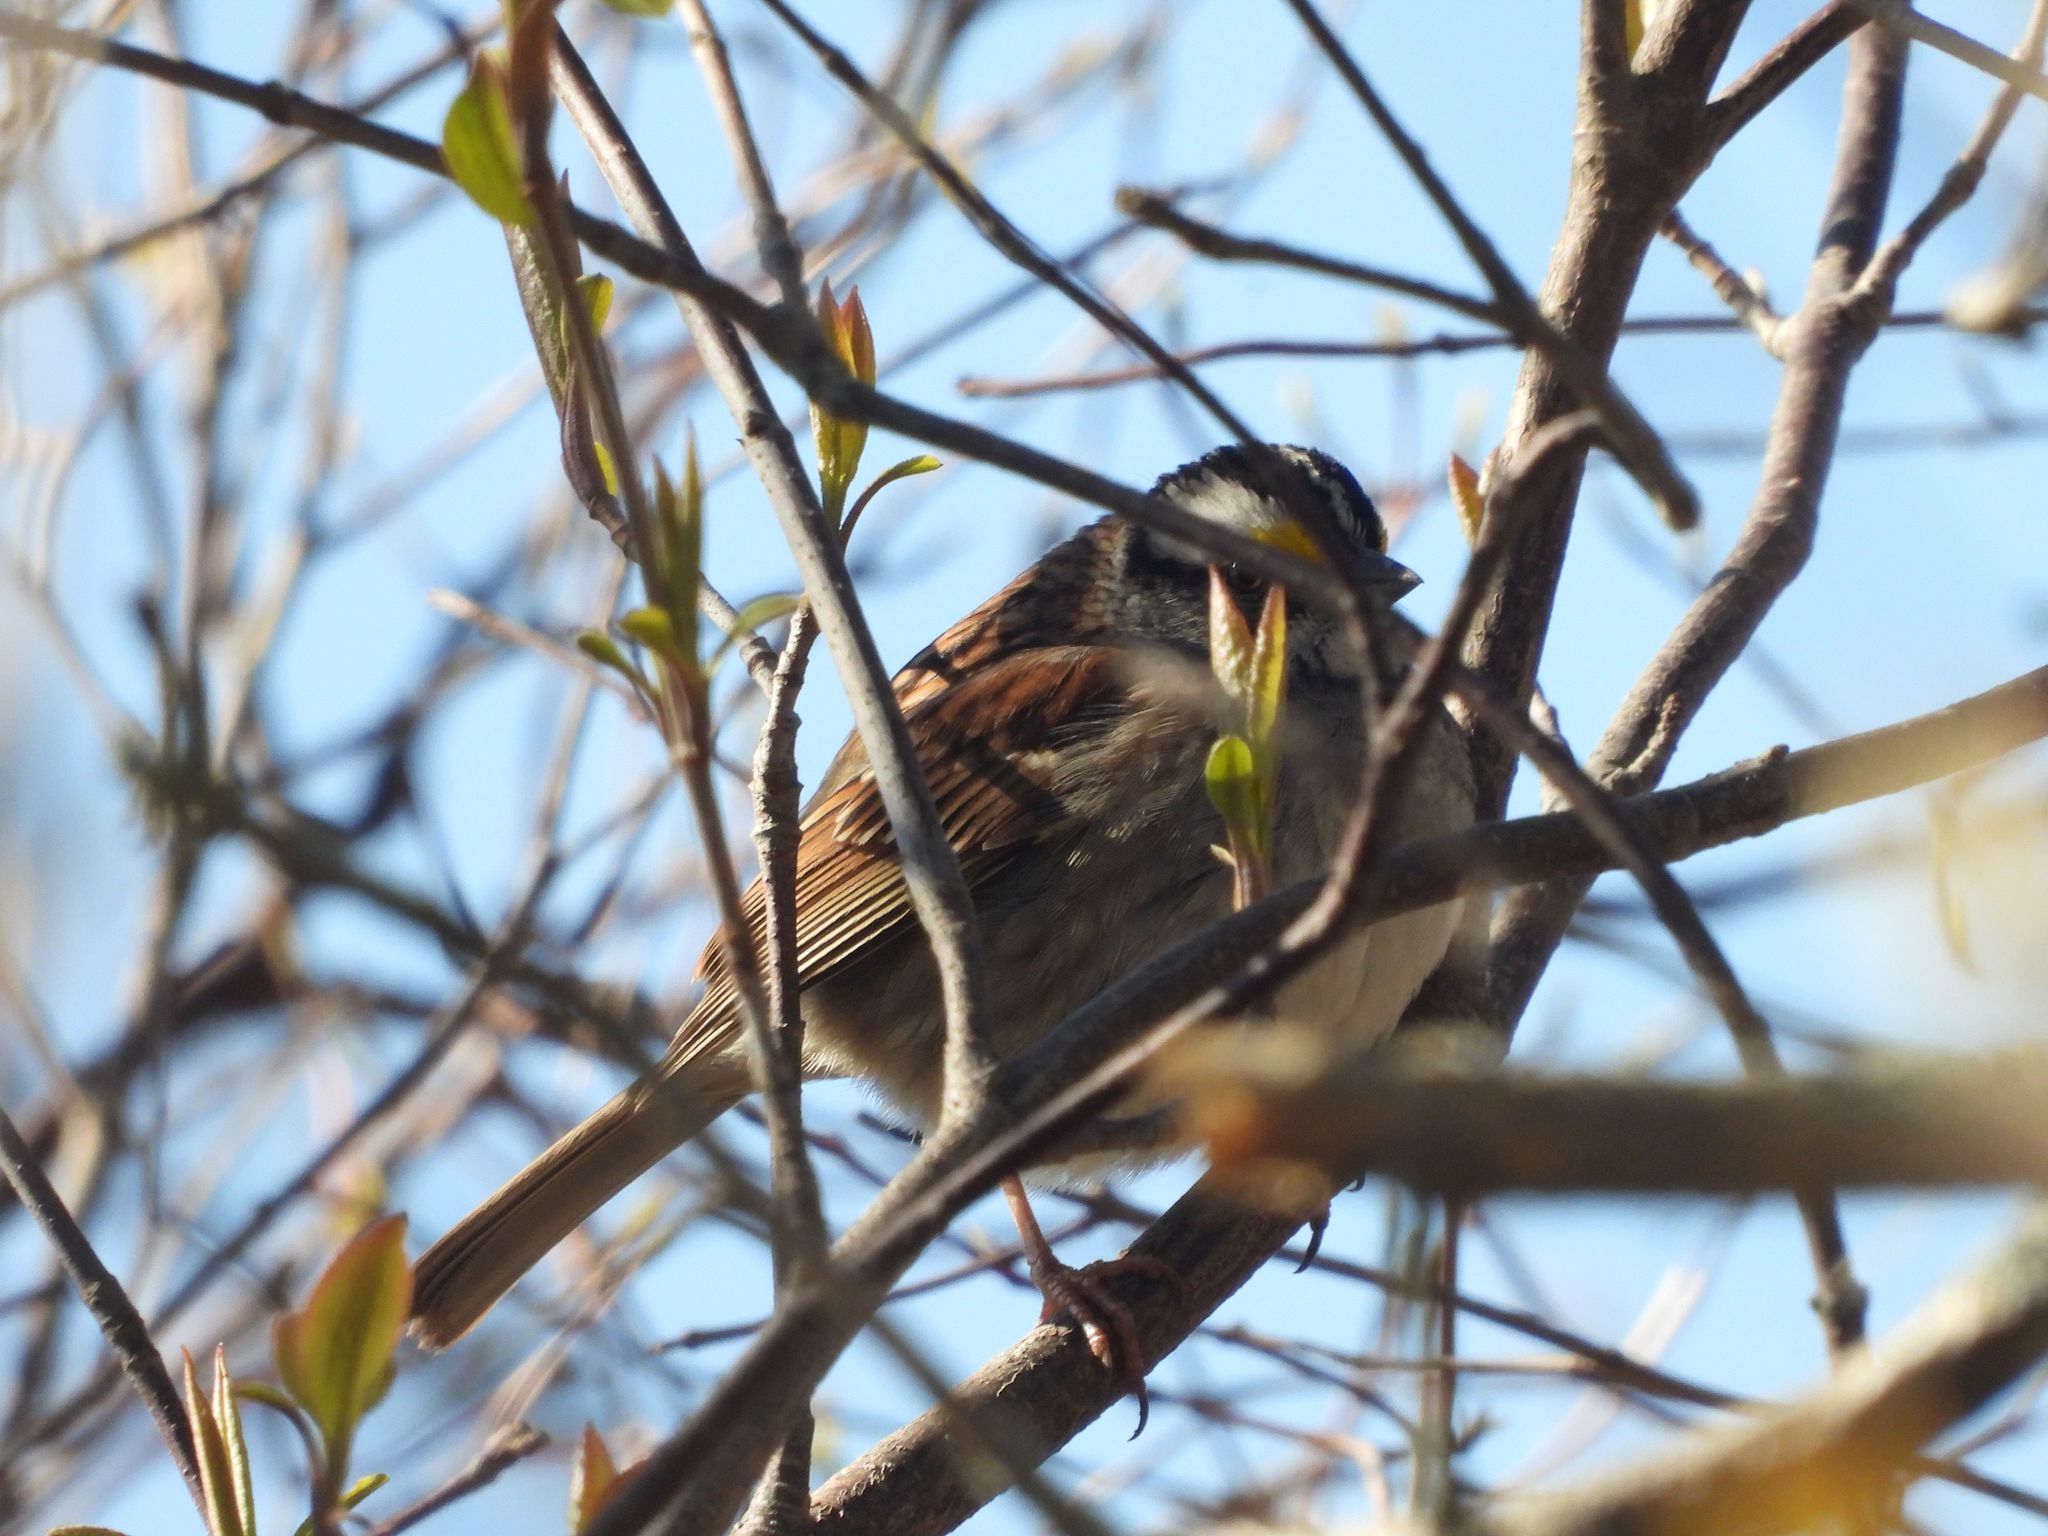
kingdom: Animalia
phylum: Chordata
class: Aves
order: Passeriformes
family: Passerellidae
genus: Zonotrichia
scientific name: Zonotrichia albicollis
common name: White-throated sparrow
